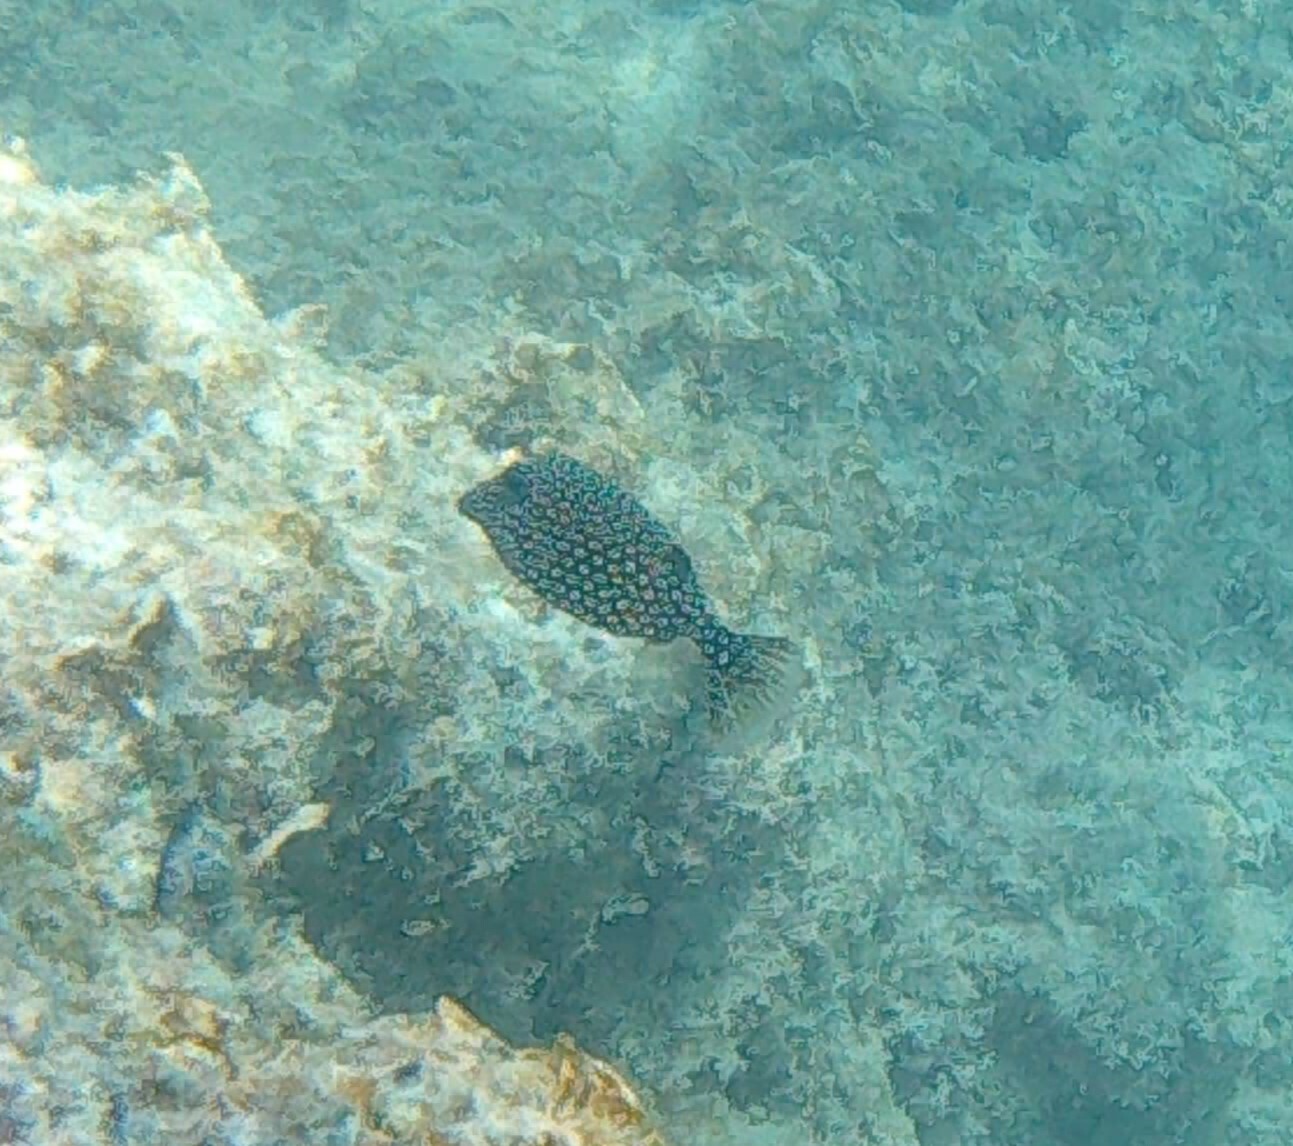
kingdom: Animalia
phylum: Chordata
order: Tetraodontiformes
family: Ostraciidae
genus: Ostracion
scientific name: Ostracion meleagris
